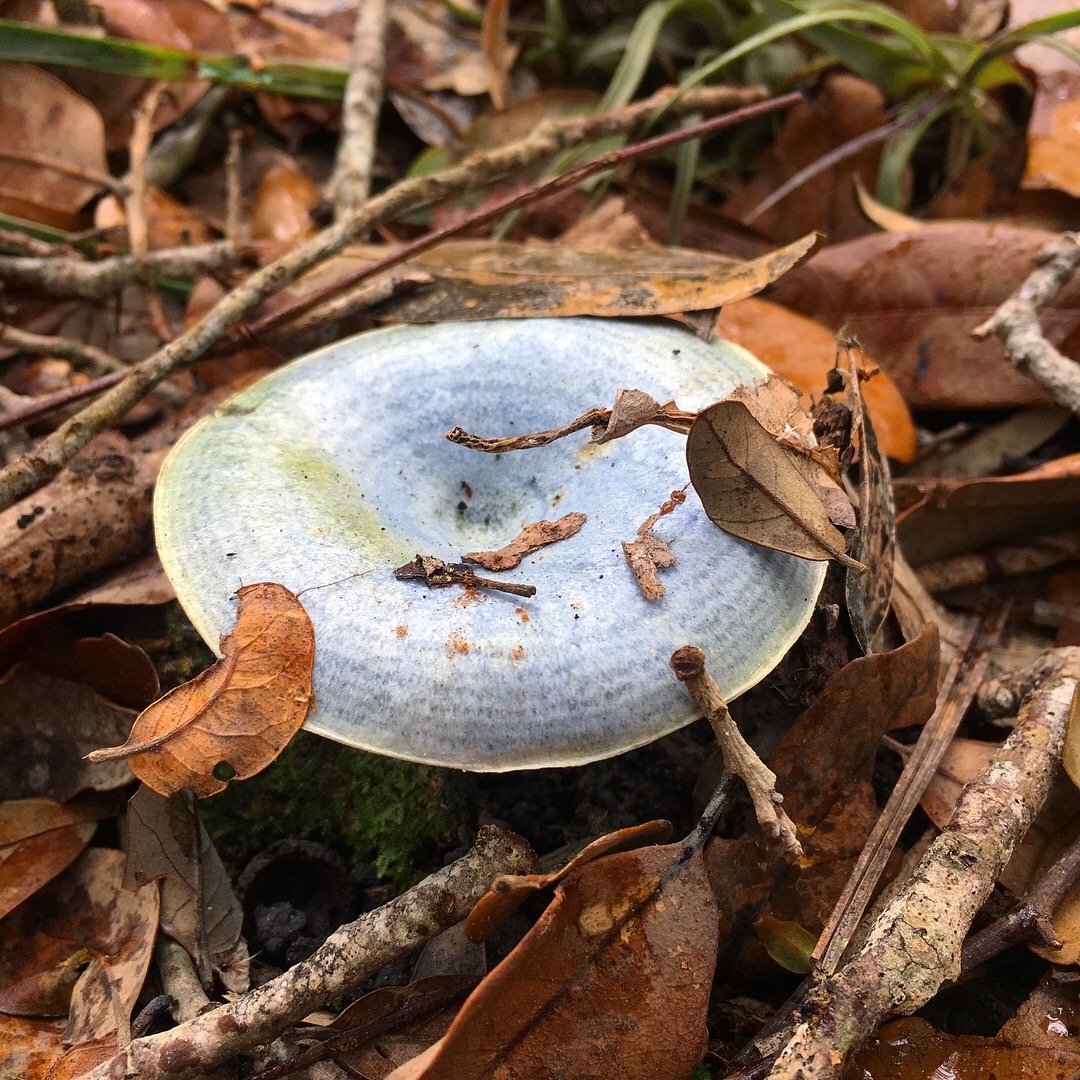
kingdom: Fungi
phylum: Basidiomycota
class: Agaricomycetes
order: Russulales
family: Russulaceae
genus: Lactarius
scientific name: Lactarius indigo
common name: Indigo milk cap
